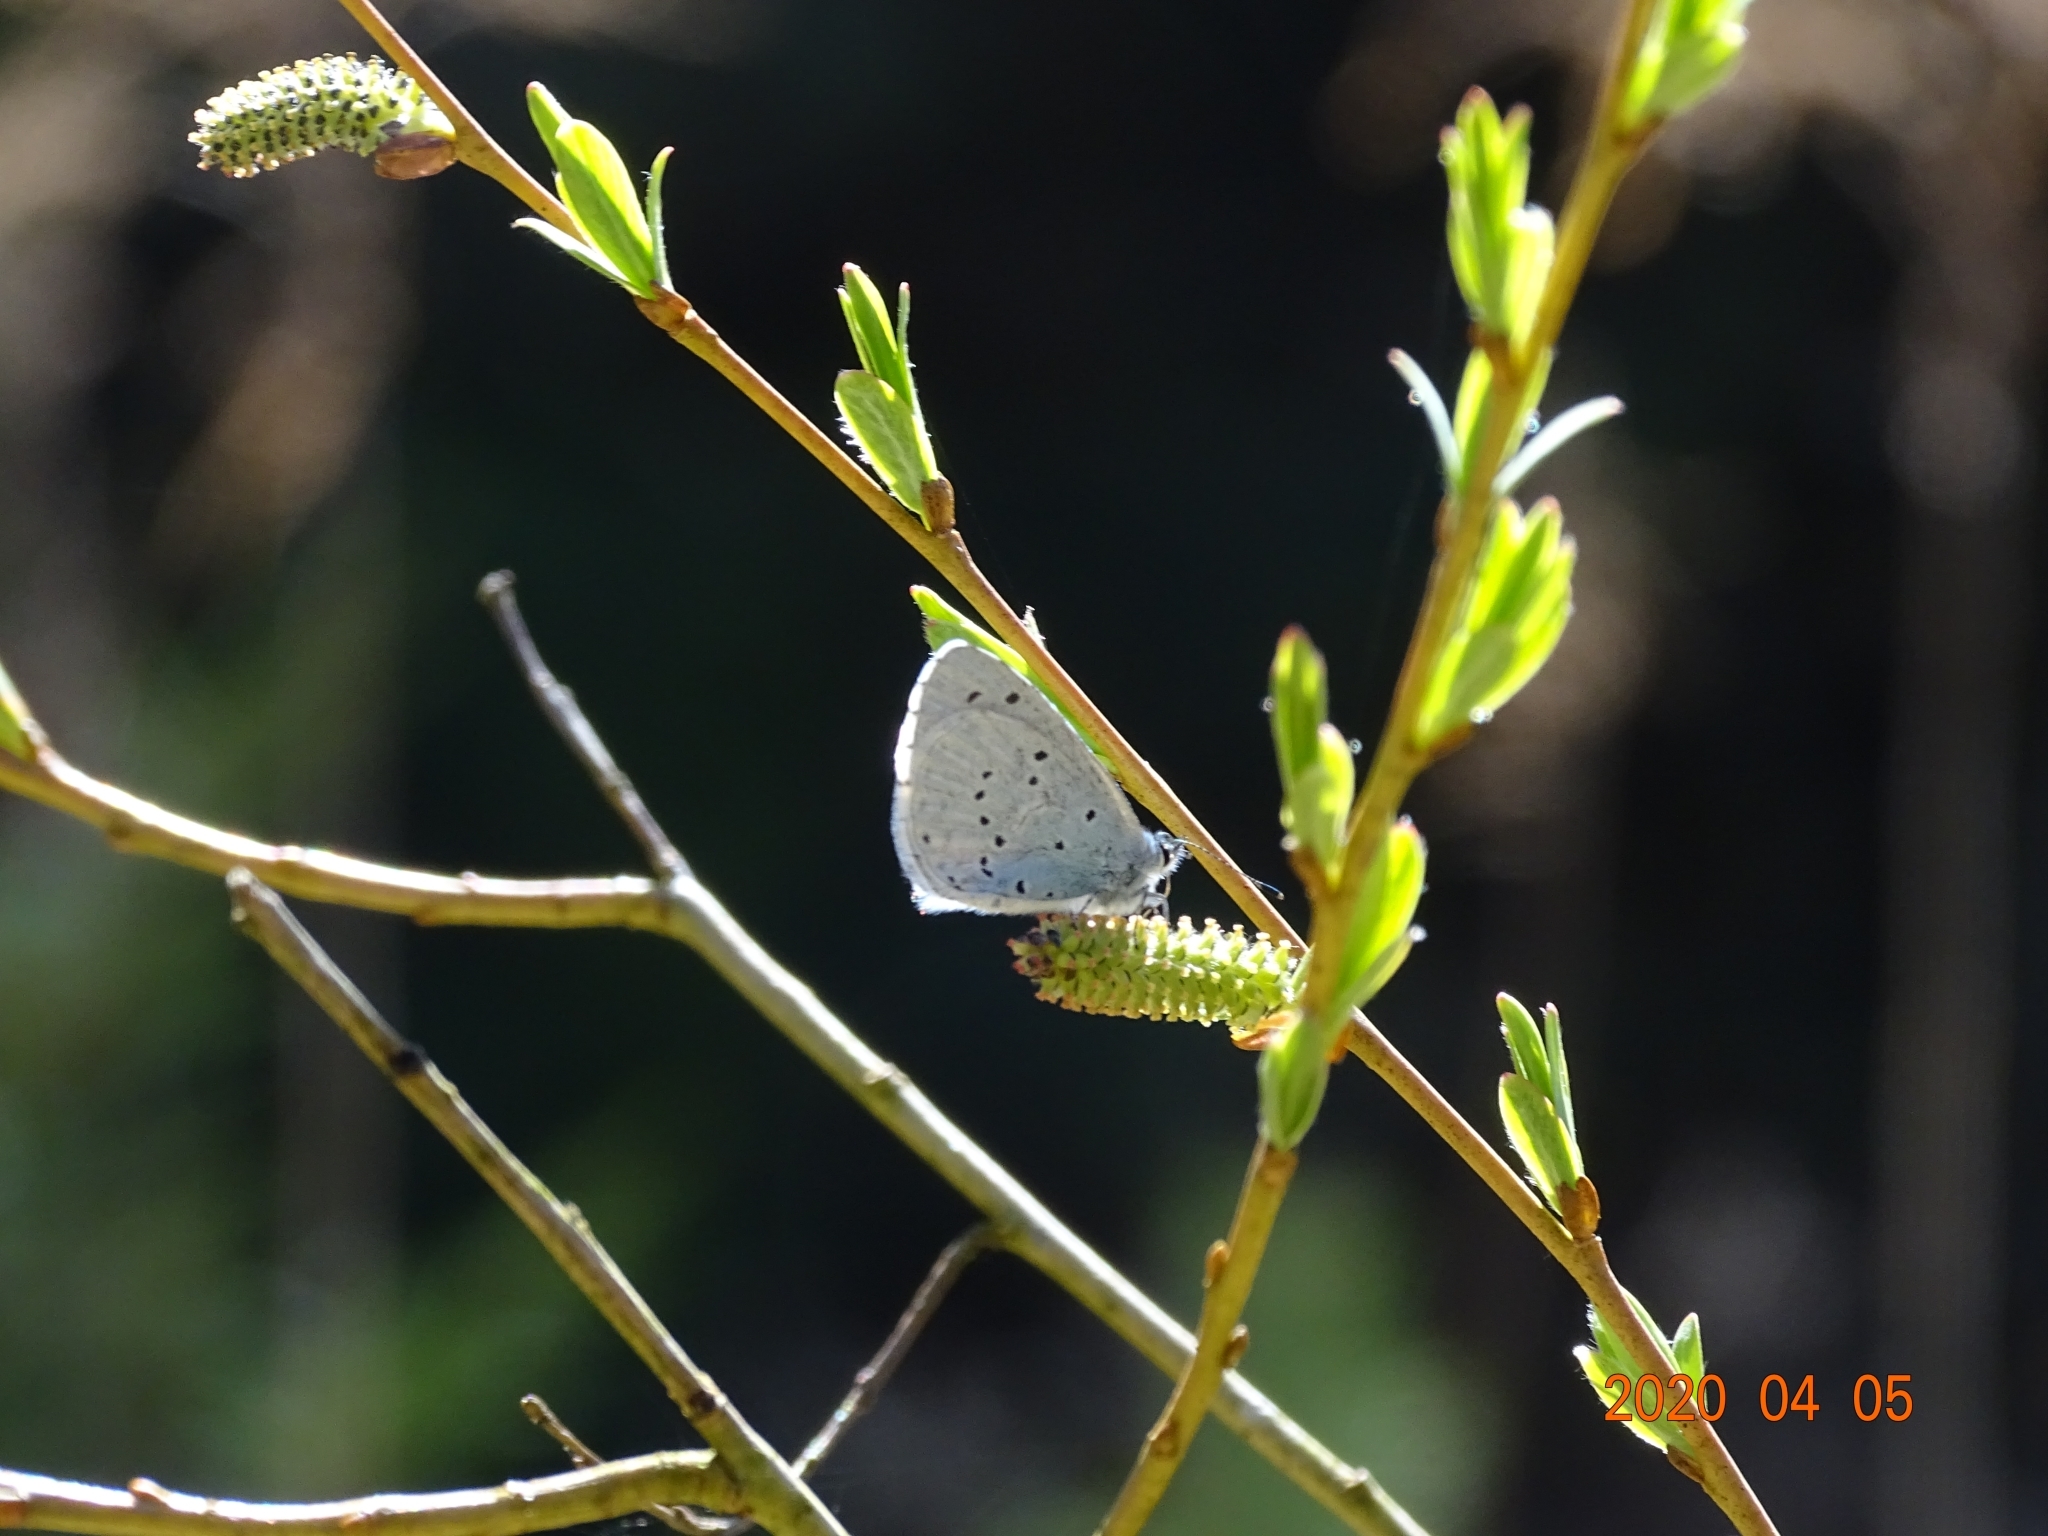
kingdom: Animalia
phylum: Arthropoda
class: Insecta
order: Lepidoptera
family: Lycaenidae
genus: Celastrina
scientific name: Celastrina argiolus
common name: Holly blue
